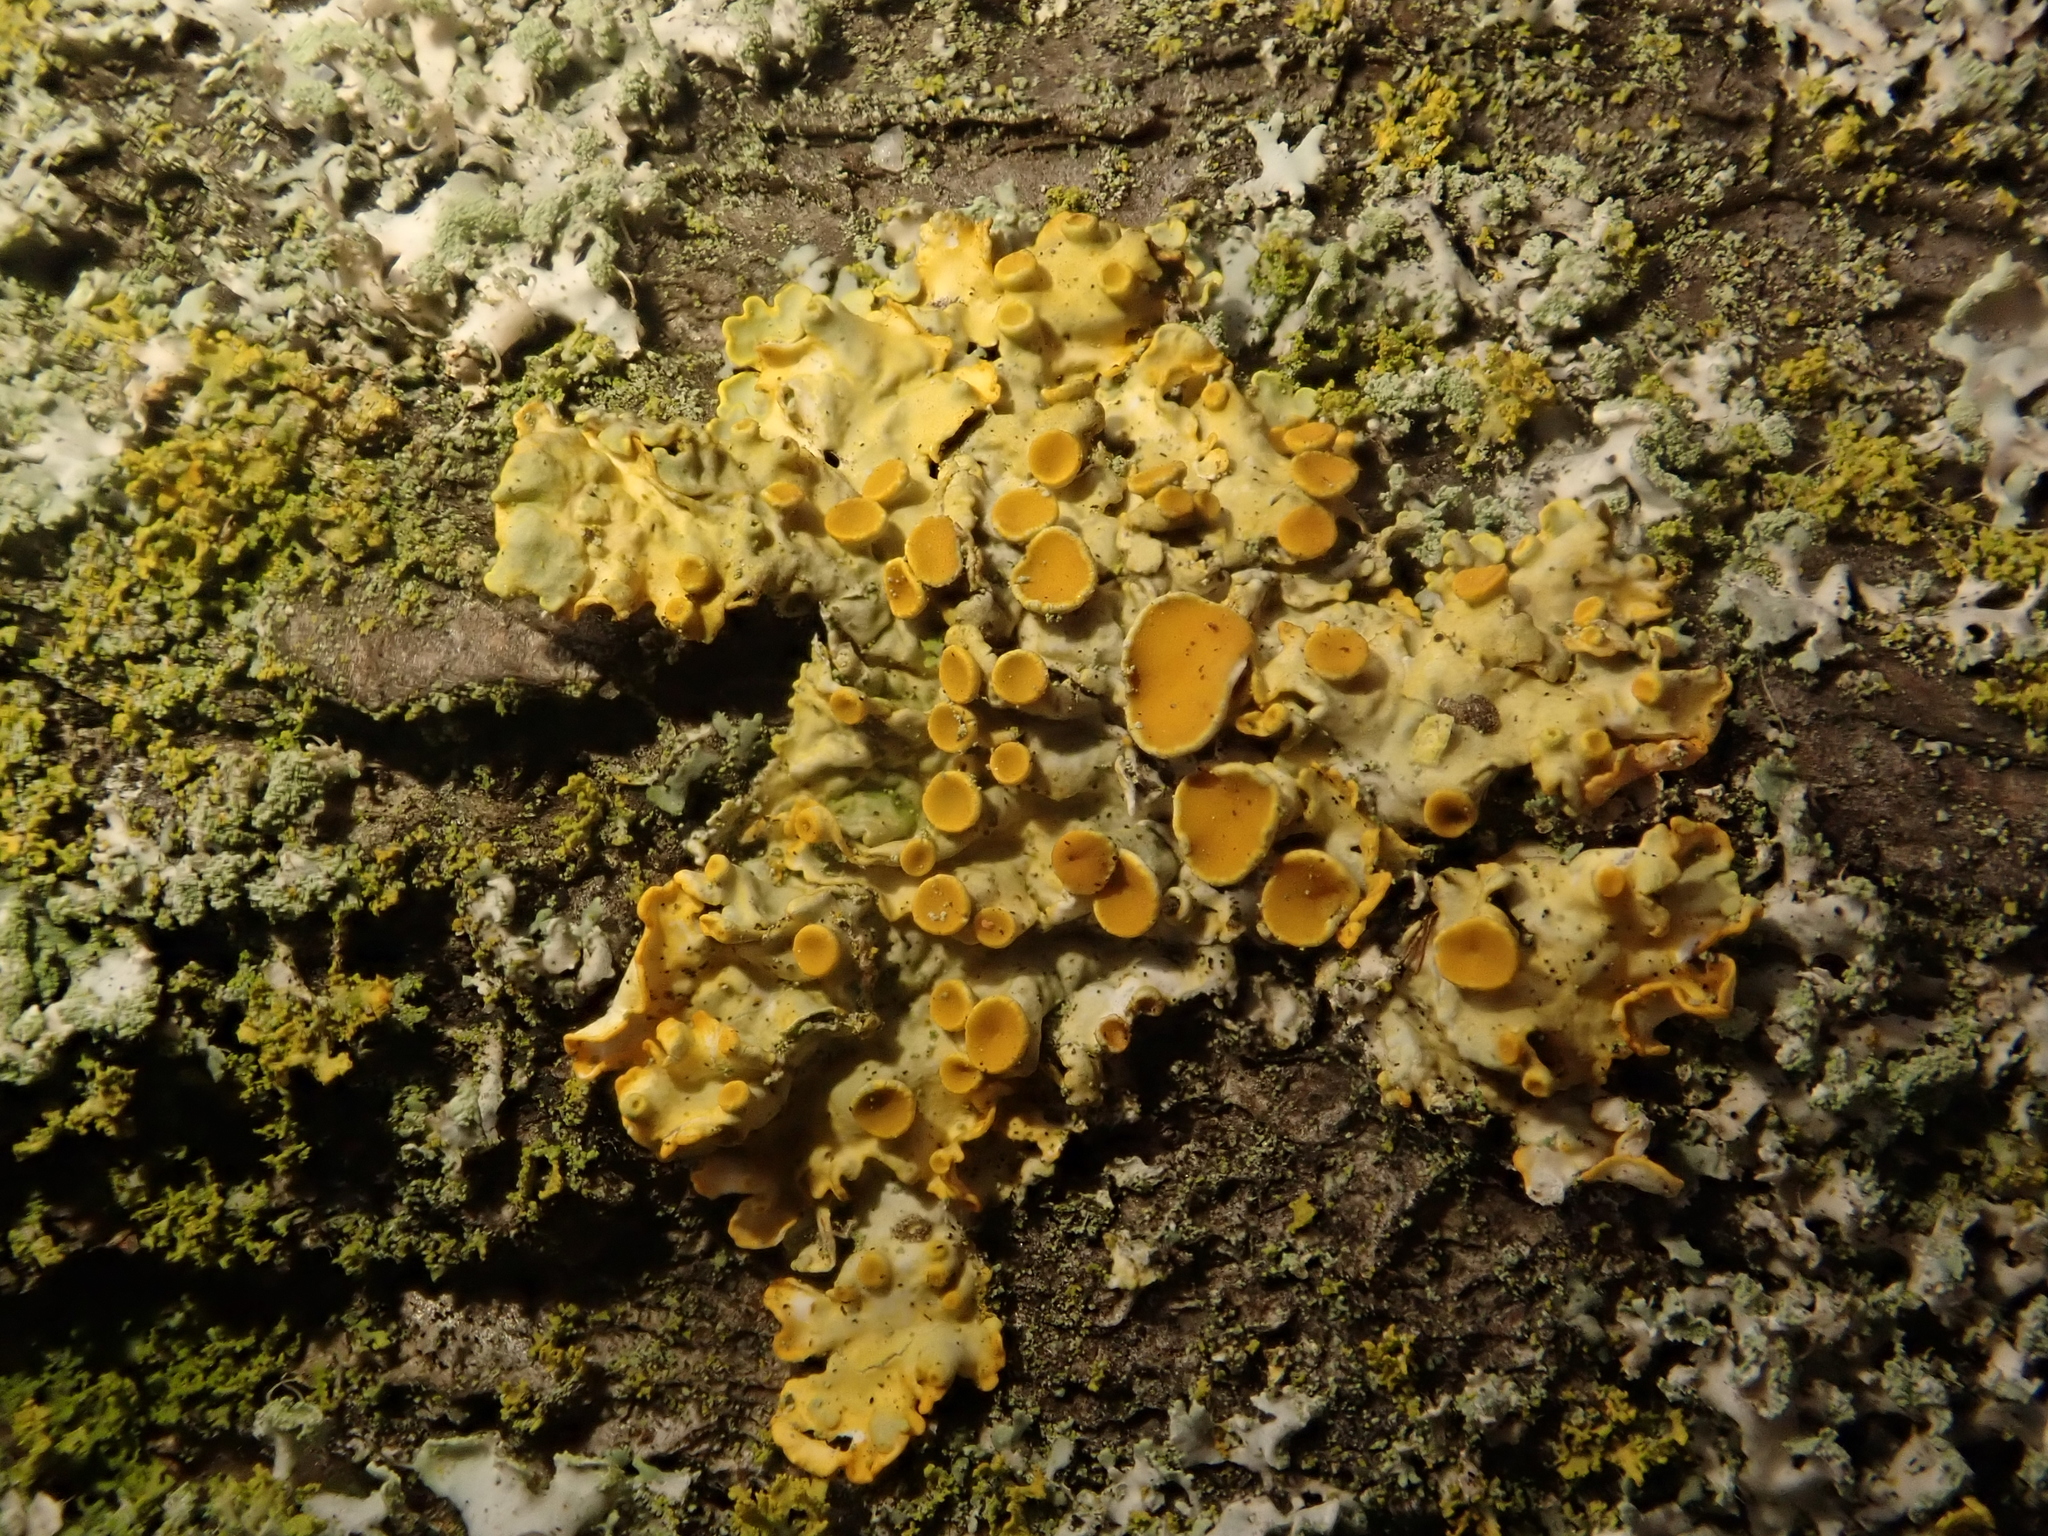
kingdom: Fungi
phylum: Ascomycota
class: Lecanoromycetes
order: Teloschistales
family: Teloschistaceae
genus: Xanthoria
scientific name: Xanthoria parietina
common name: Common orange lichen
